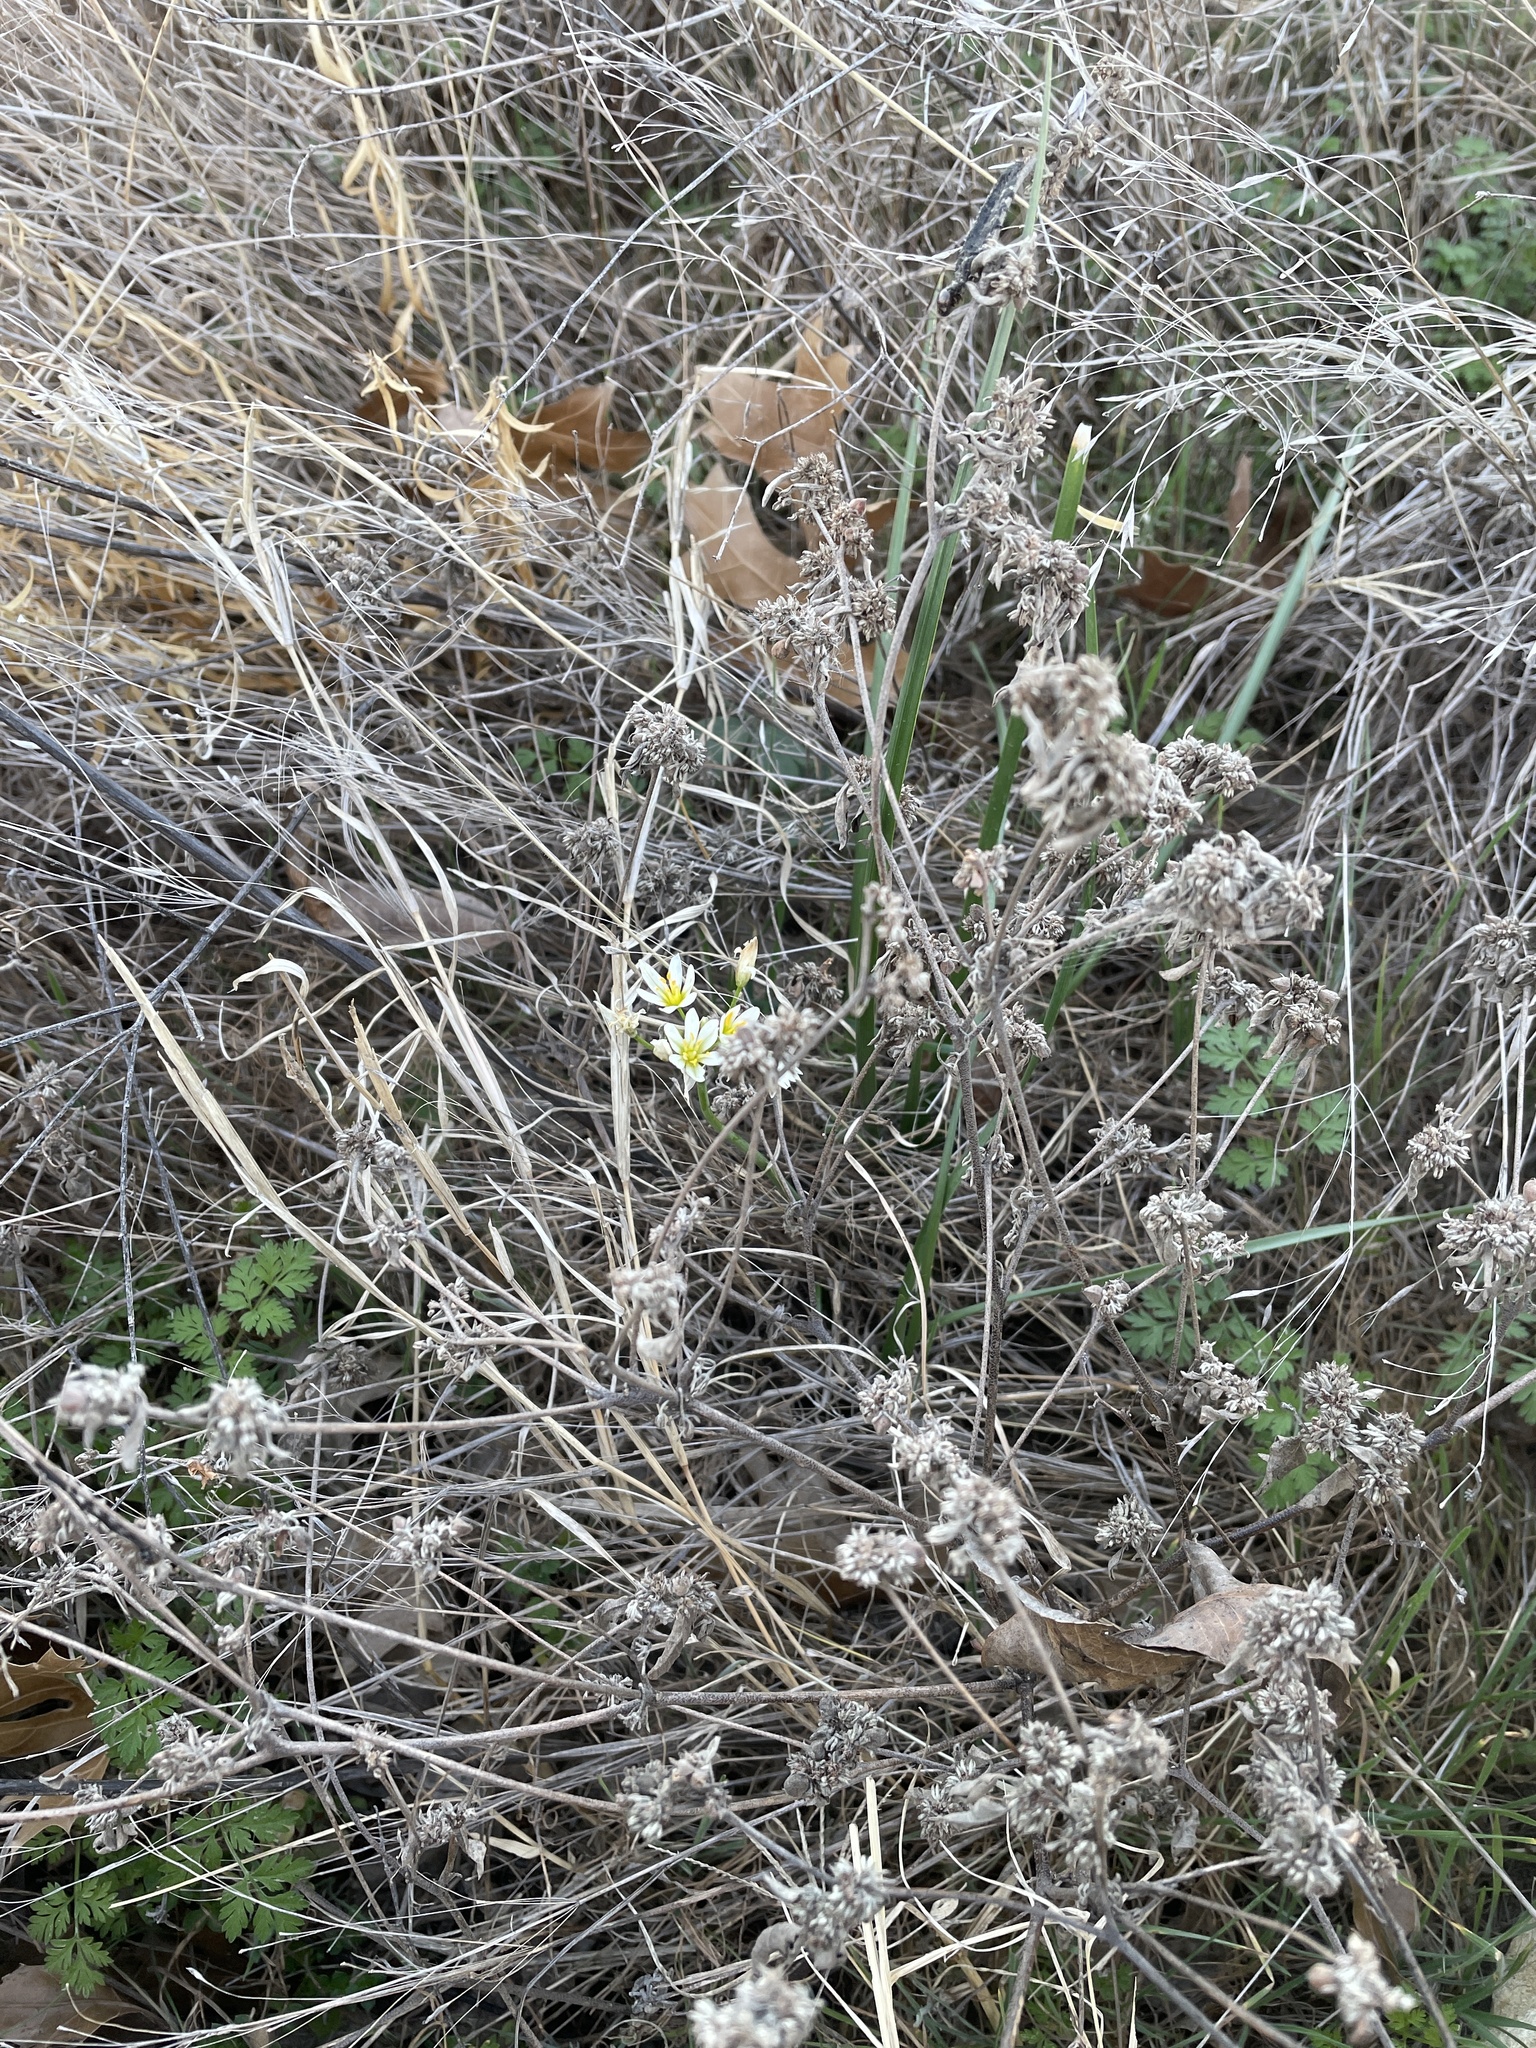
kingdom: Plantae
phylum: Tracheophyta
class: Liliopsida
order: Asparagales
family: Amaryllidaceae
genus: Nothoscordum
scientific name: Nothoscordum bivalve
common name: Crow-poison
